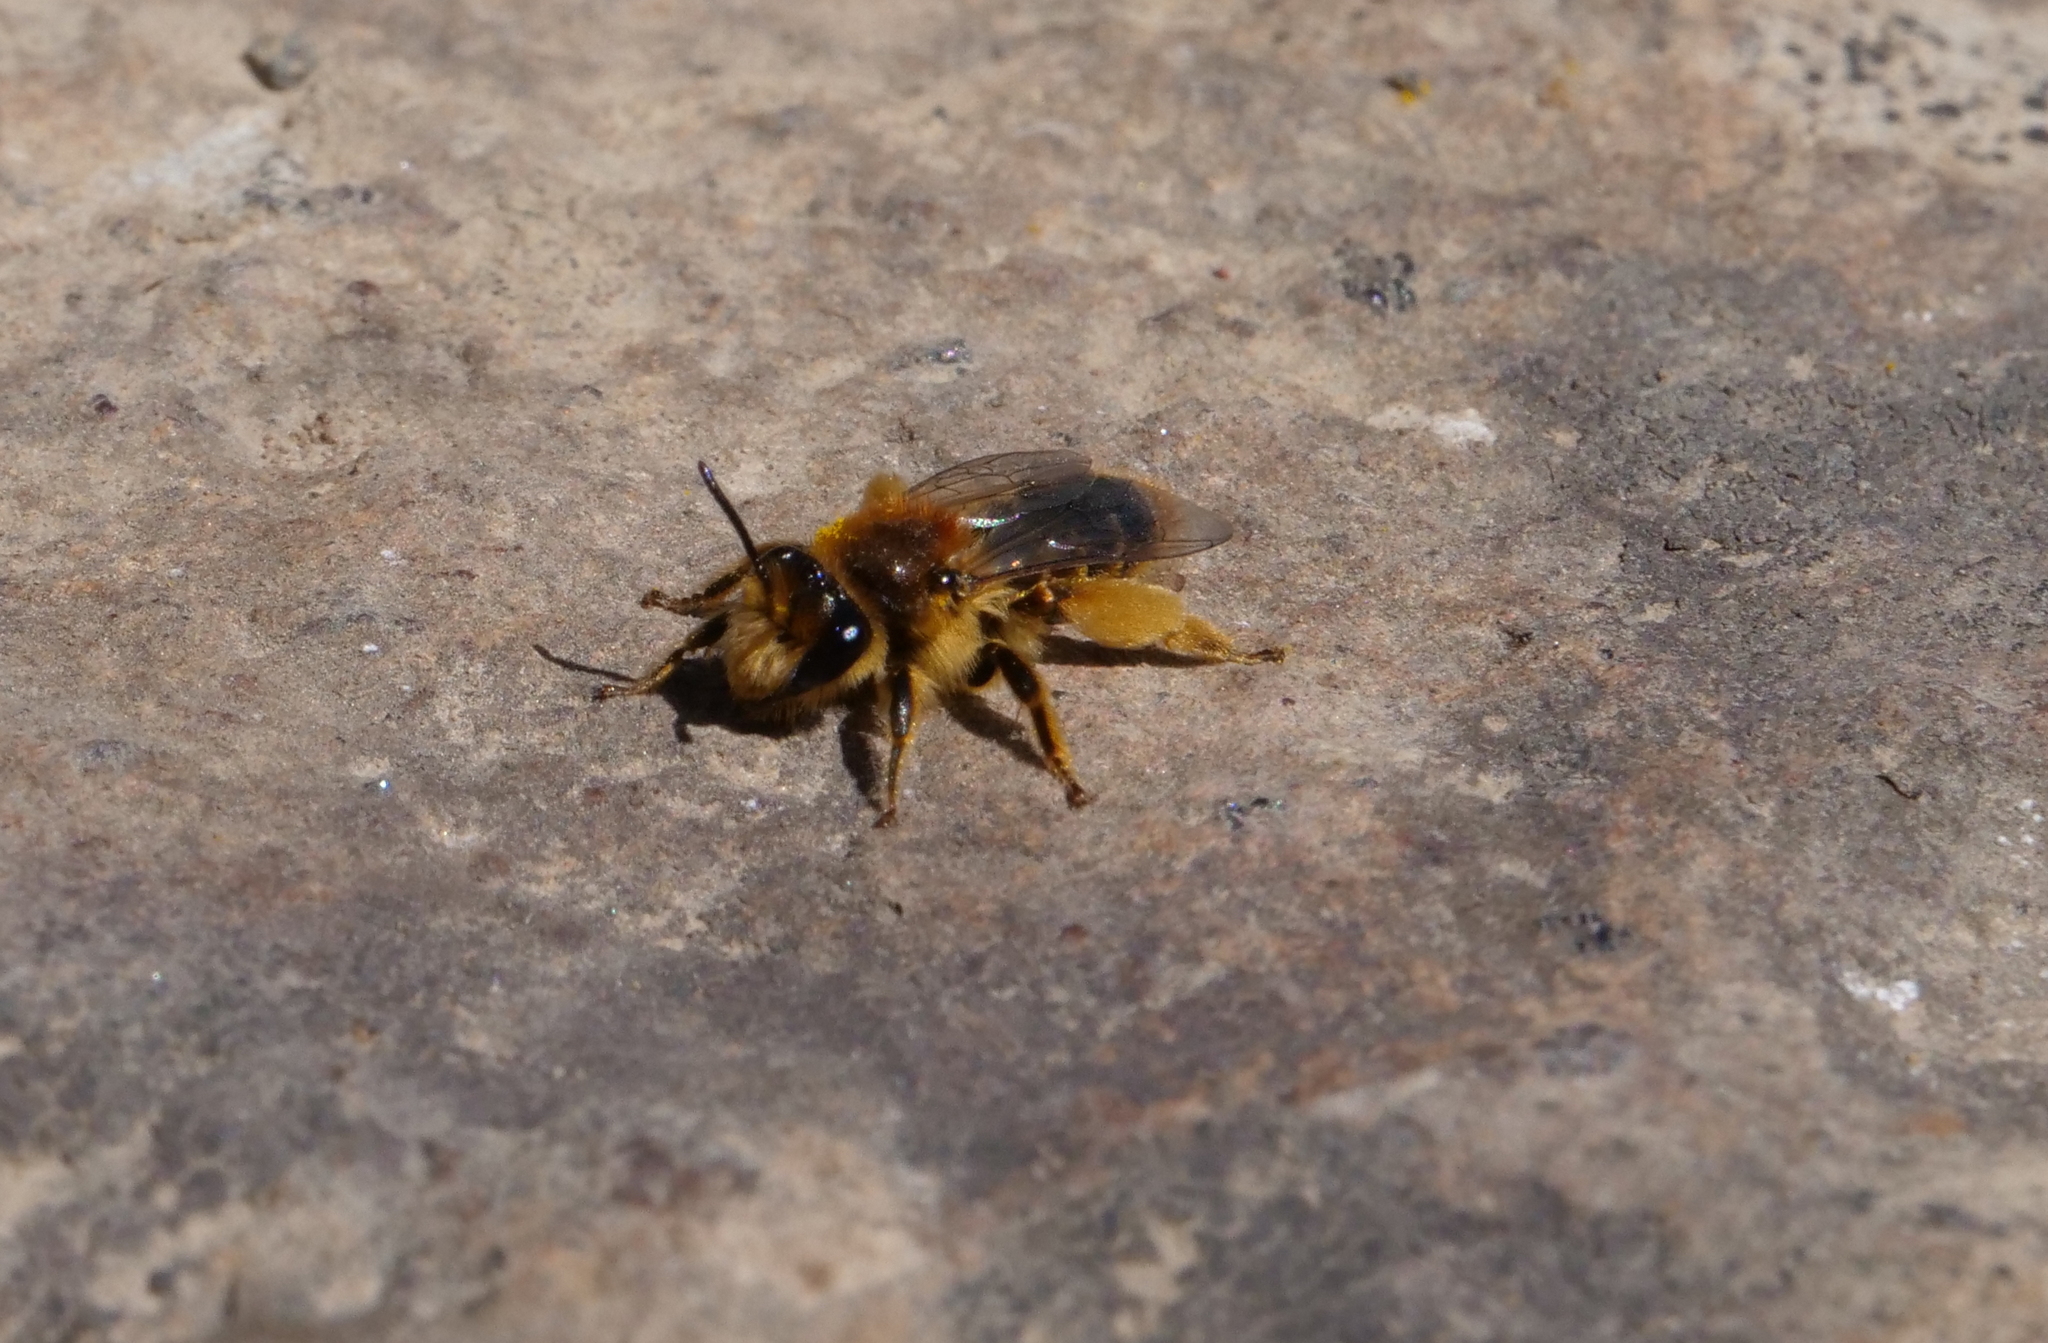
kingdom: Animalia
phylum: Arthropoda
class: Insecta
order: Hymenoptera
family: Colletidae
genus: Leioproctus
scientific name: Leioproctus fulvescens
